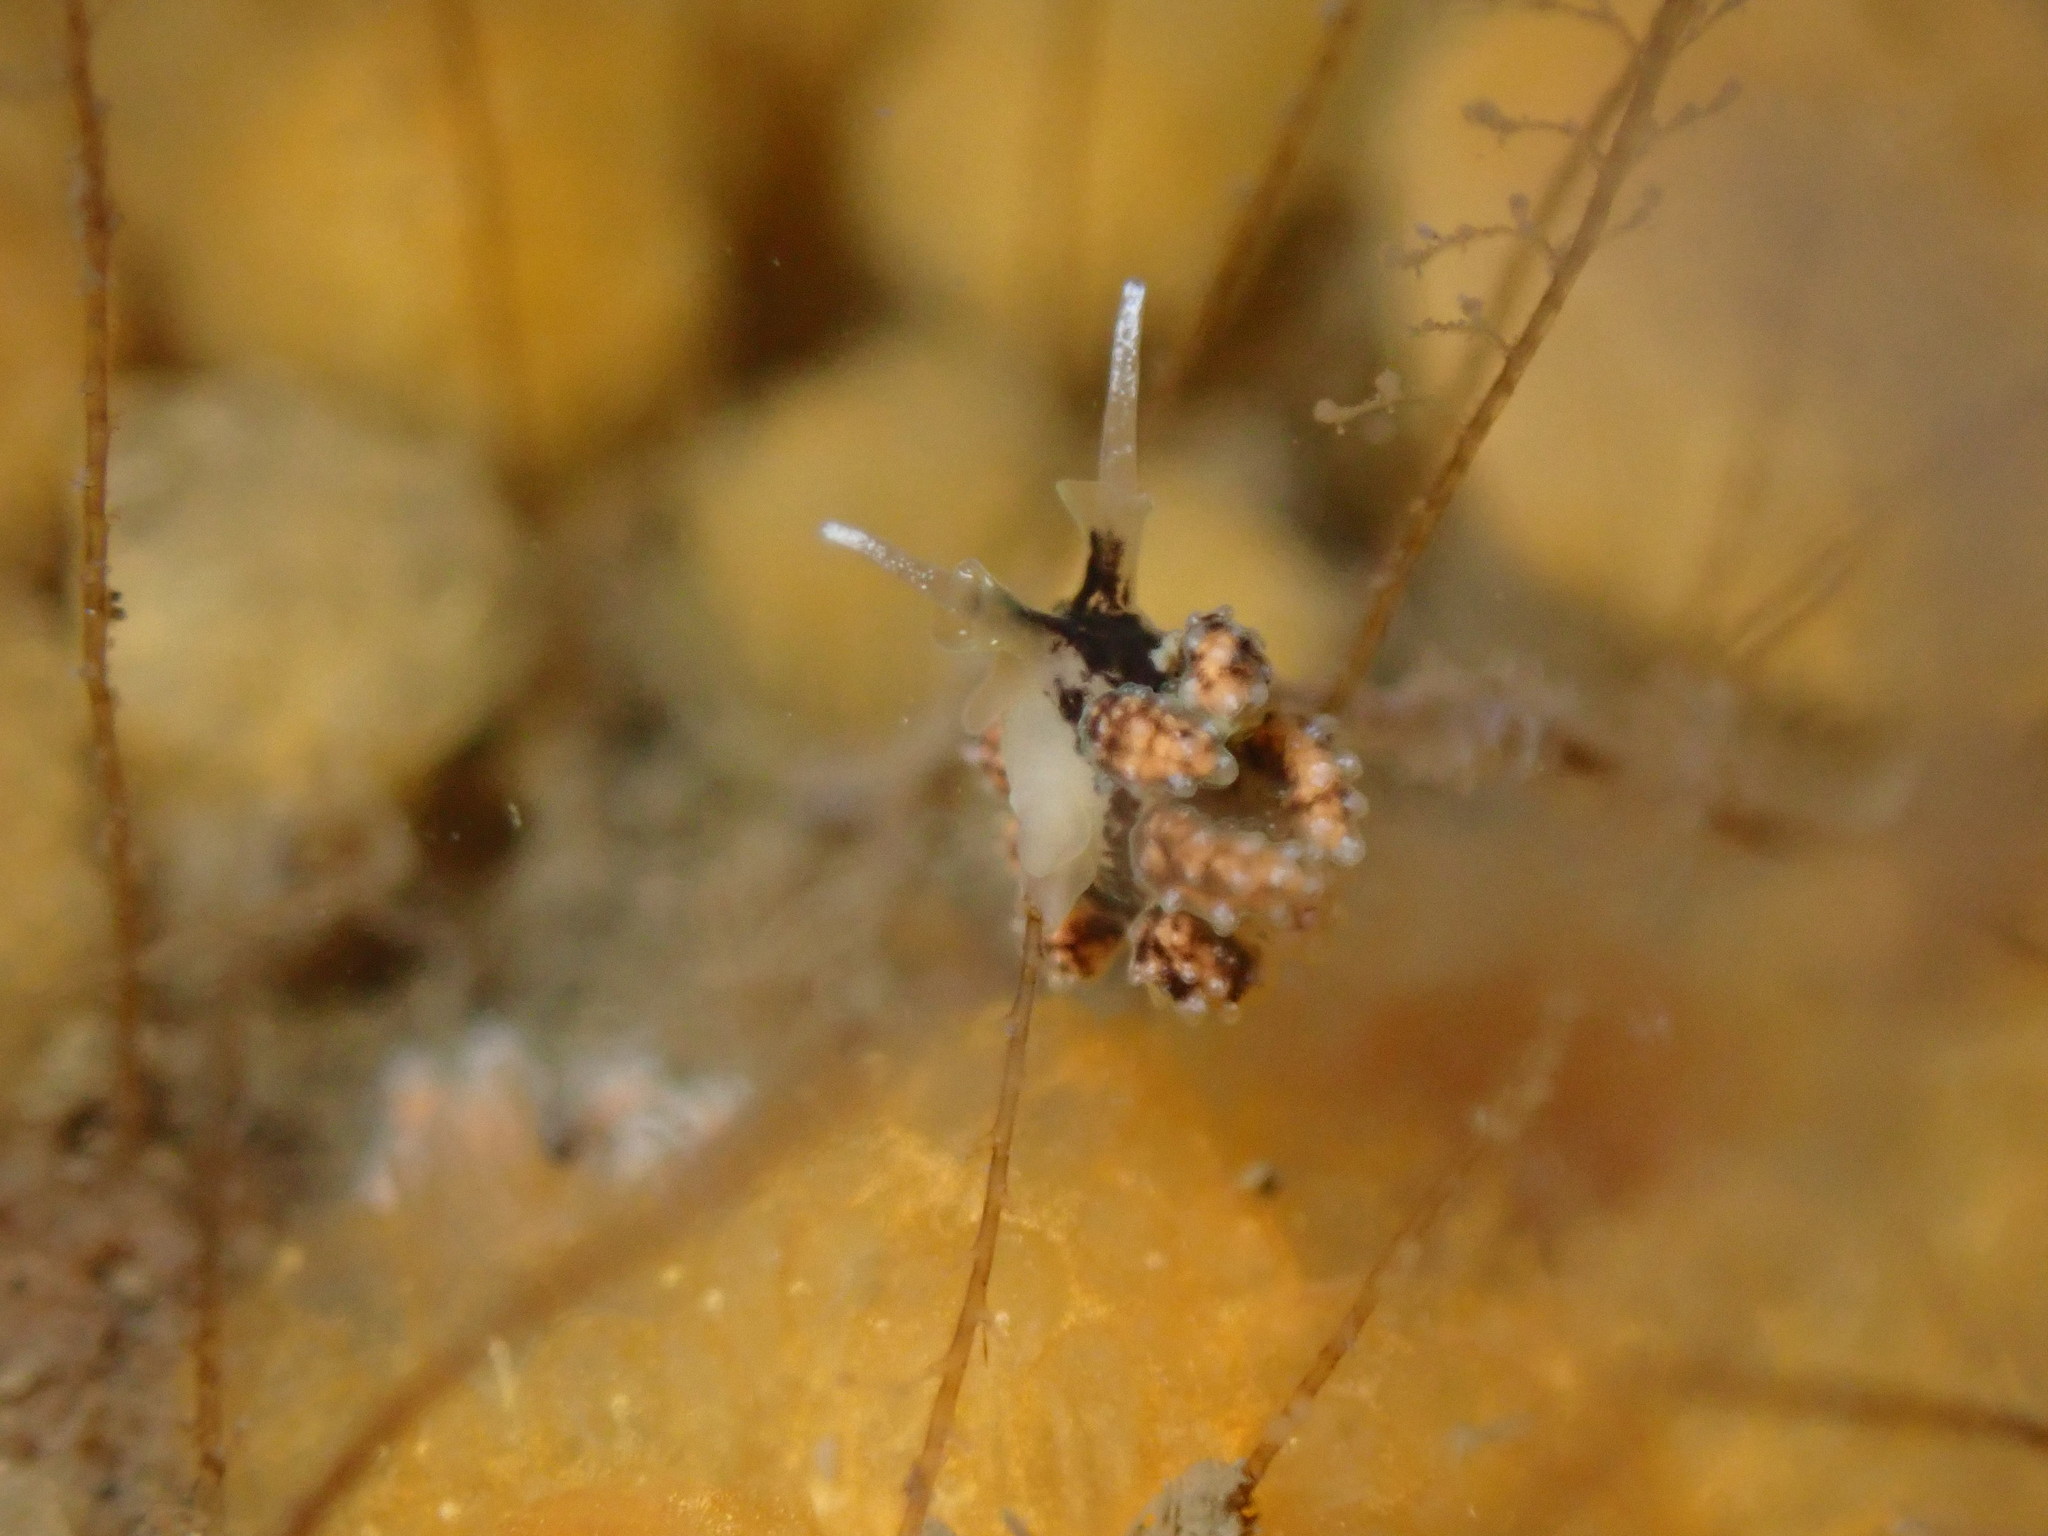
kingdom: Animalia
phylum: Mollusca
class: Gastropoda
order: Nudibranchia
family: Dotidae
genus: Doto
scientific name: Doto kya
